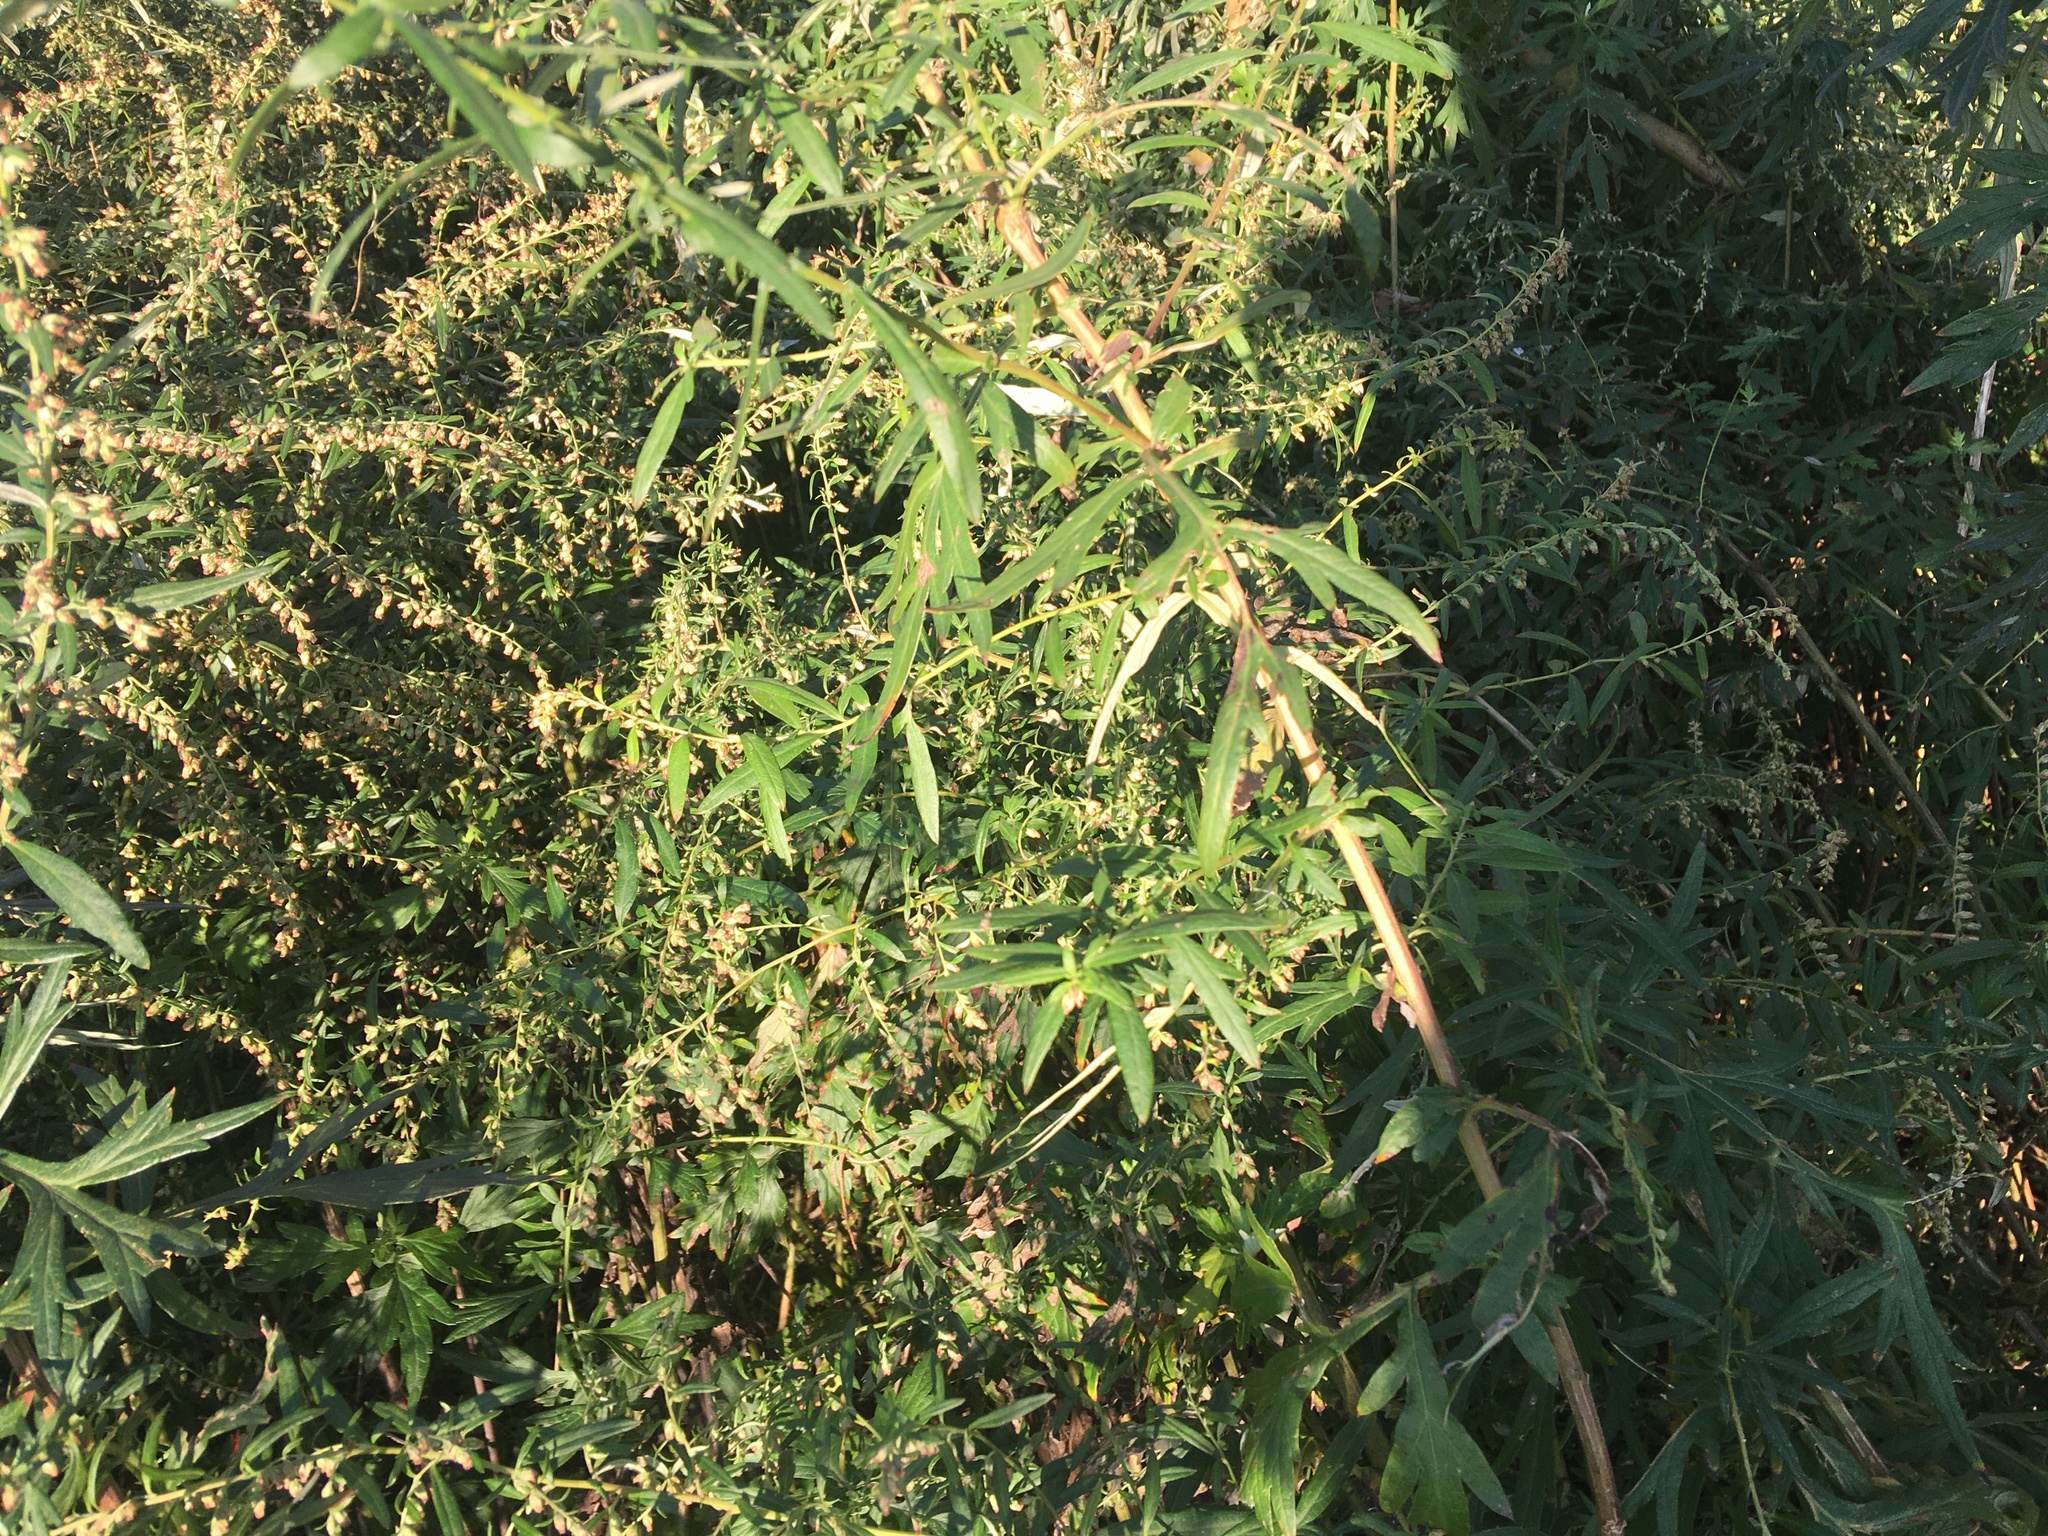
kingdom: Plantae
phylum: Tracheophyta
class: Magnoliopsida
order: Asterales
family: Asteraceae
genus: Artemisia
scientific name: Artemisia vulgaris
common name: Mugwort
